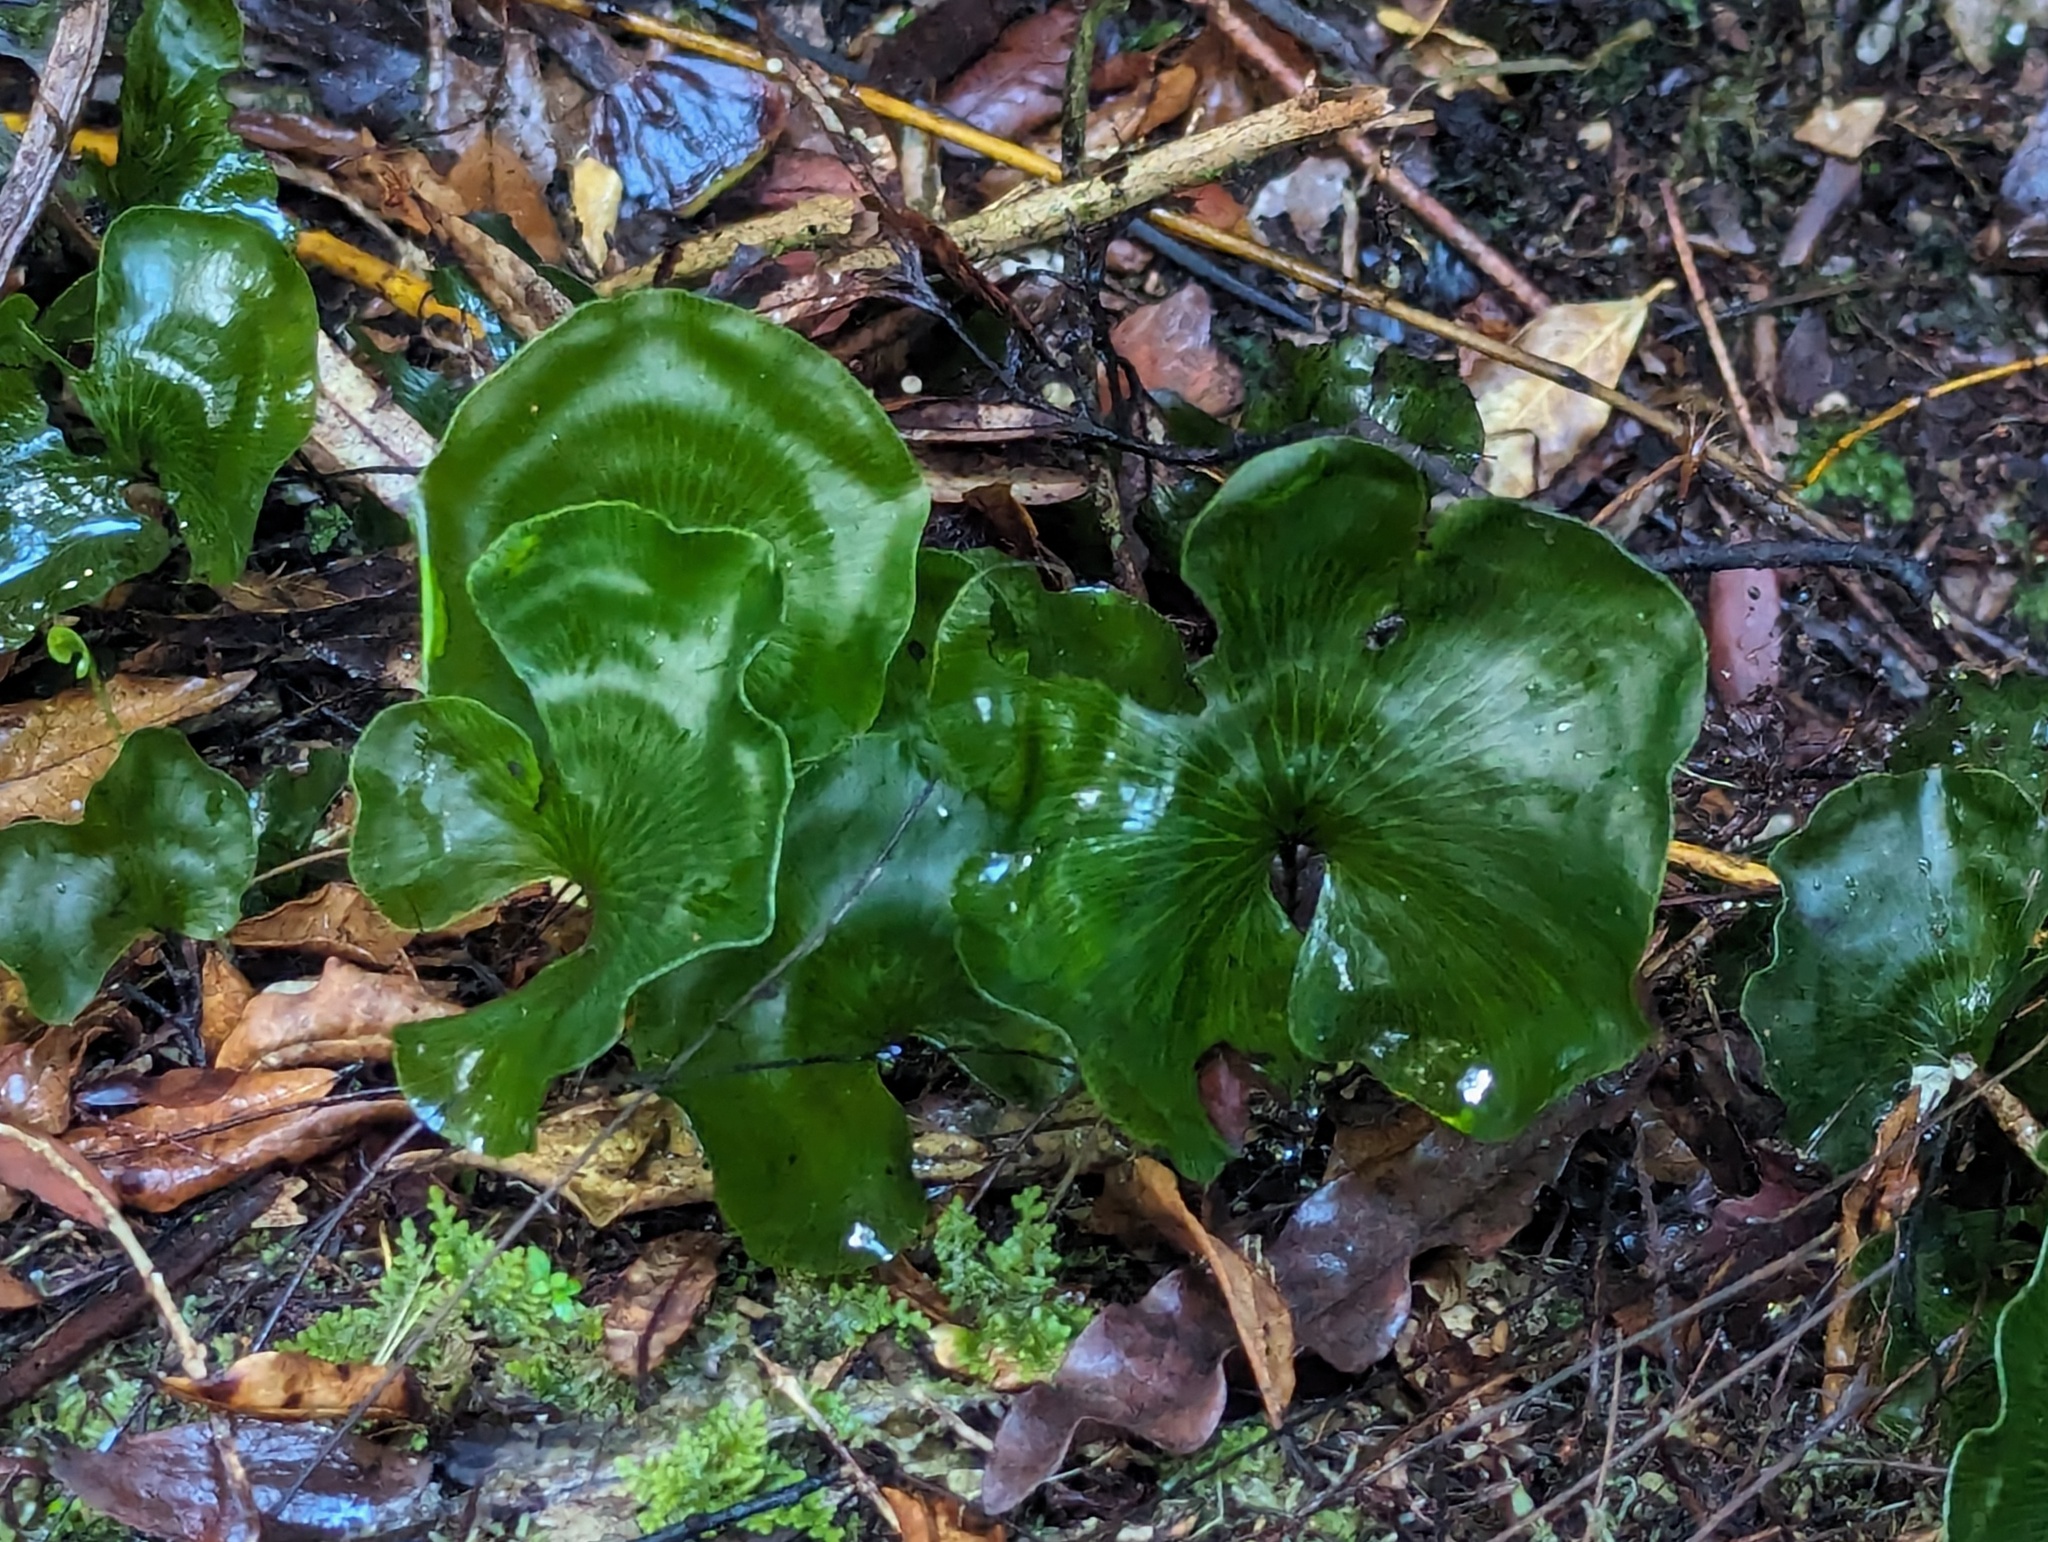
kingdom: Plantae
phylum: Tracheophyta
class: Polypodiopsida
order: Hymenophyllales
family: Hymenophyllaceae
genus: Hymenophyllum
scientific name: Hymenophyllum nephrophyllum
